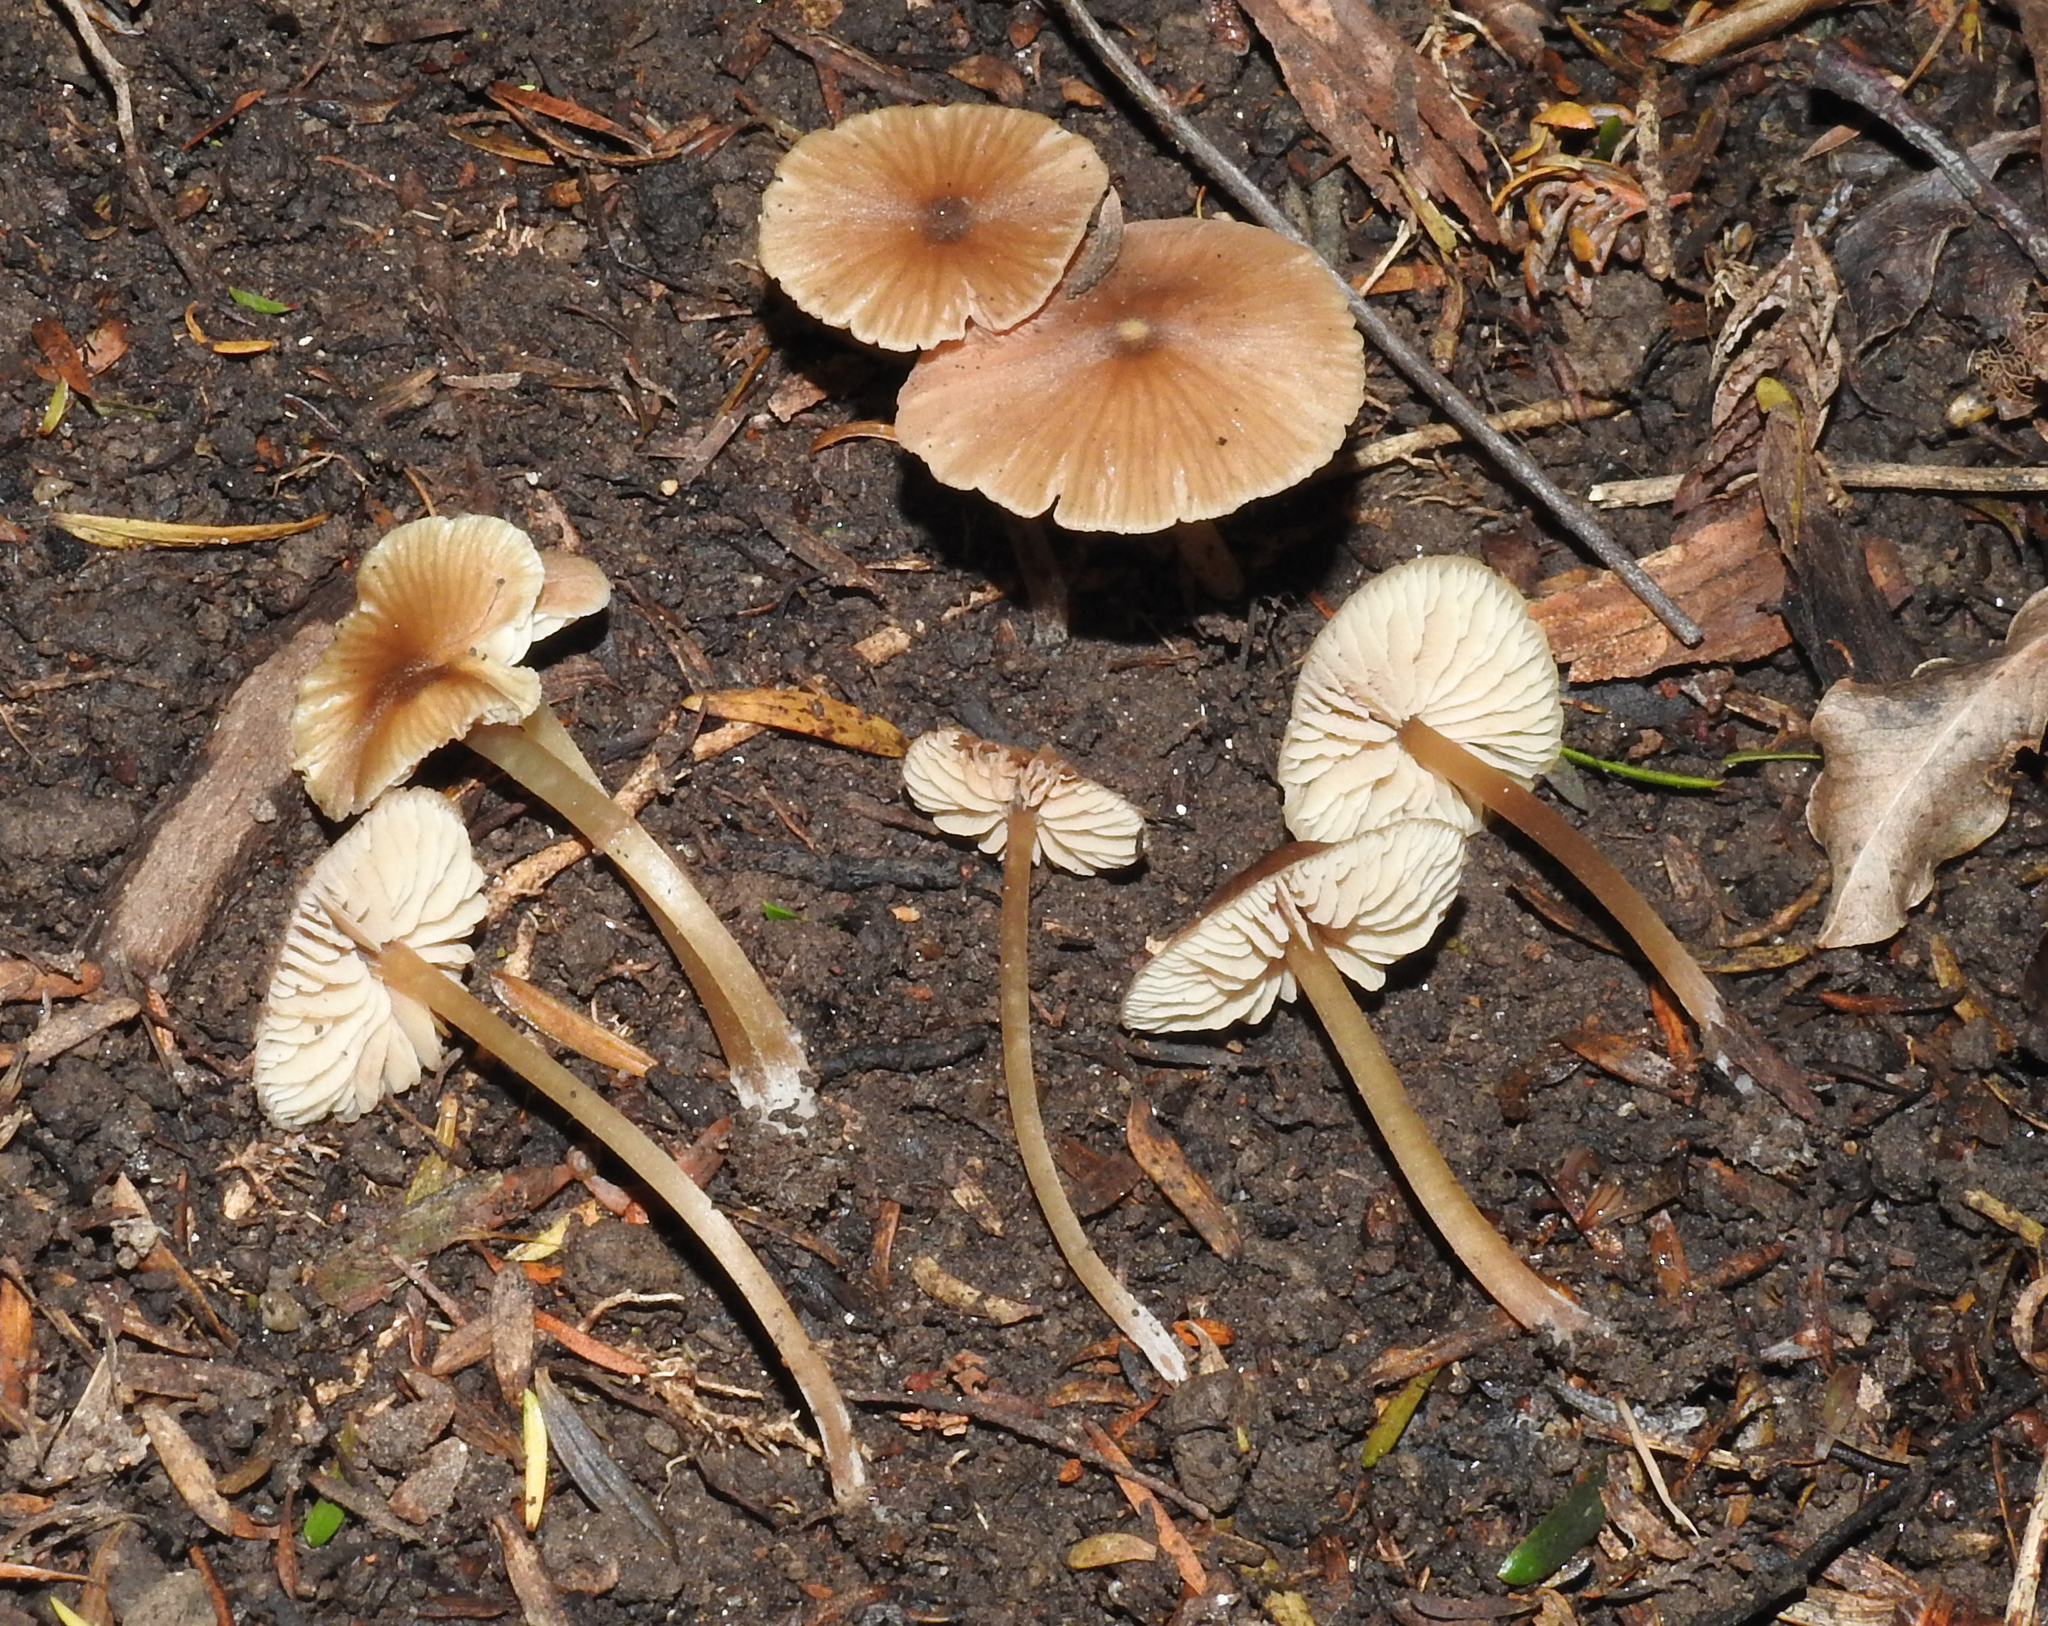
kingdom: Fungi
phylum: Basidiomycota
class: Agaricomycetes
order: Agaricales
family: Entolomataceae
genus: Entoloma
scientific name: Entoloma aromaticum
